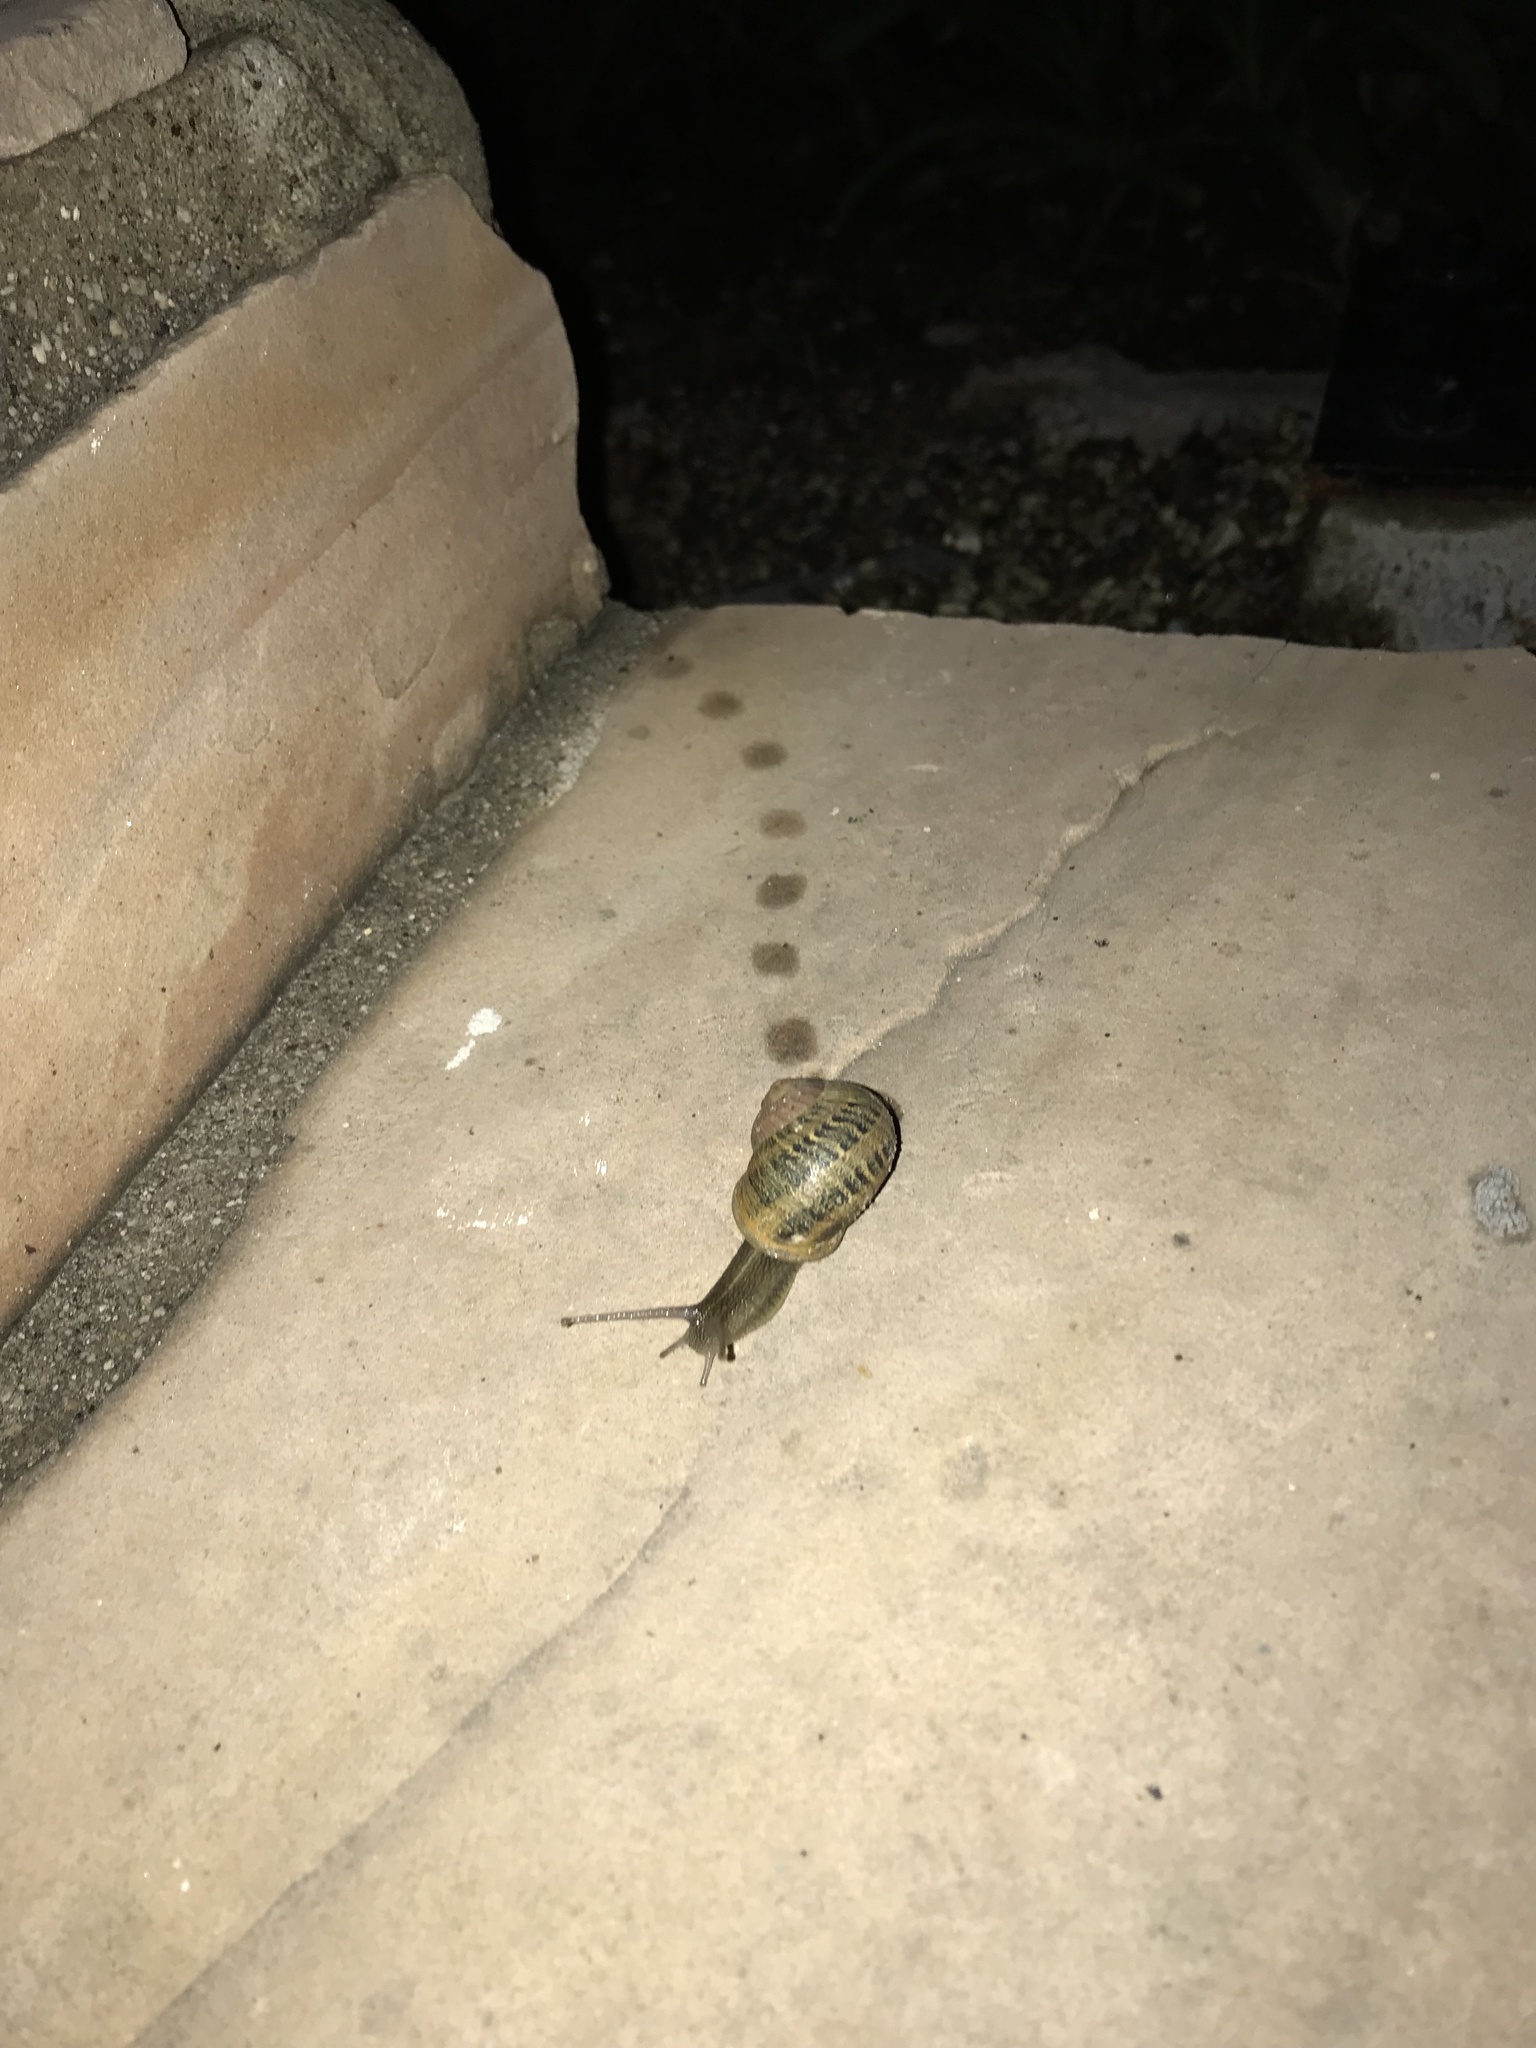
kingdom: Animalia
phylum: Mollusca
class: Gastropoda
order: Stylommatophora
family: Helicidae
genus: Cornu
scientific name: Cornu aspersum
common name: Brown garden snail
